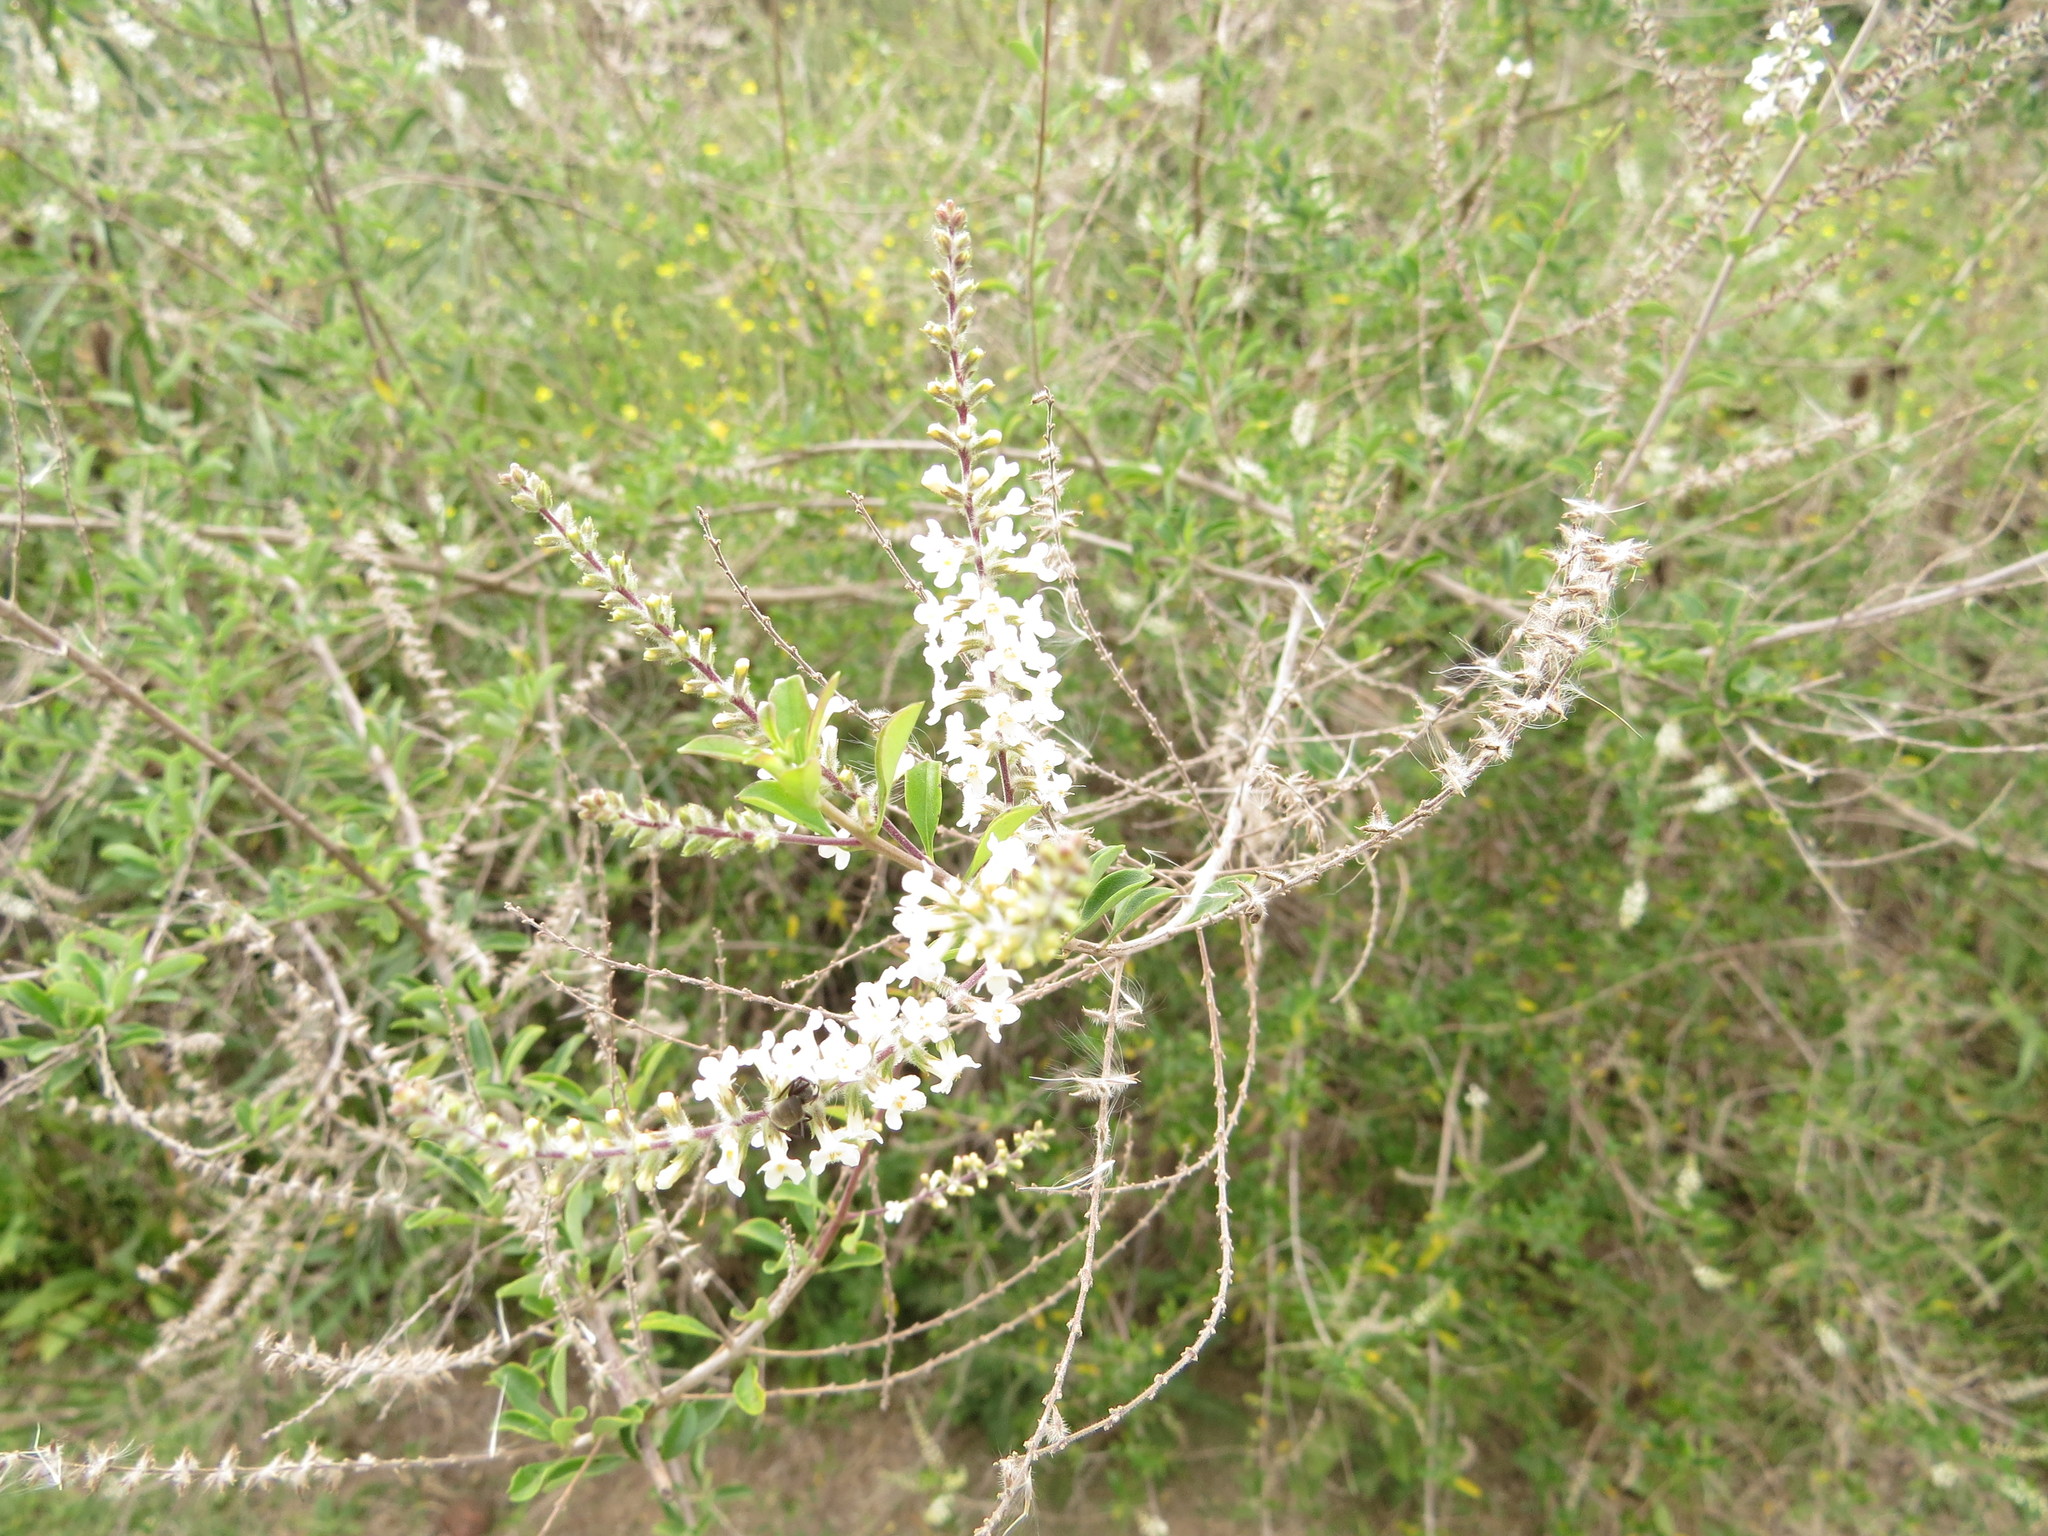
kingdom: Plantae
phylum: Tracheophyta
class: Magnoliopsida
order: Lamiales
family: Verbenaceae
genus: Aloysia
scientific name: Aloysia gratissima
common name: Common bee-brush
